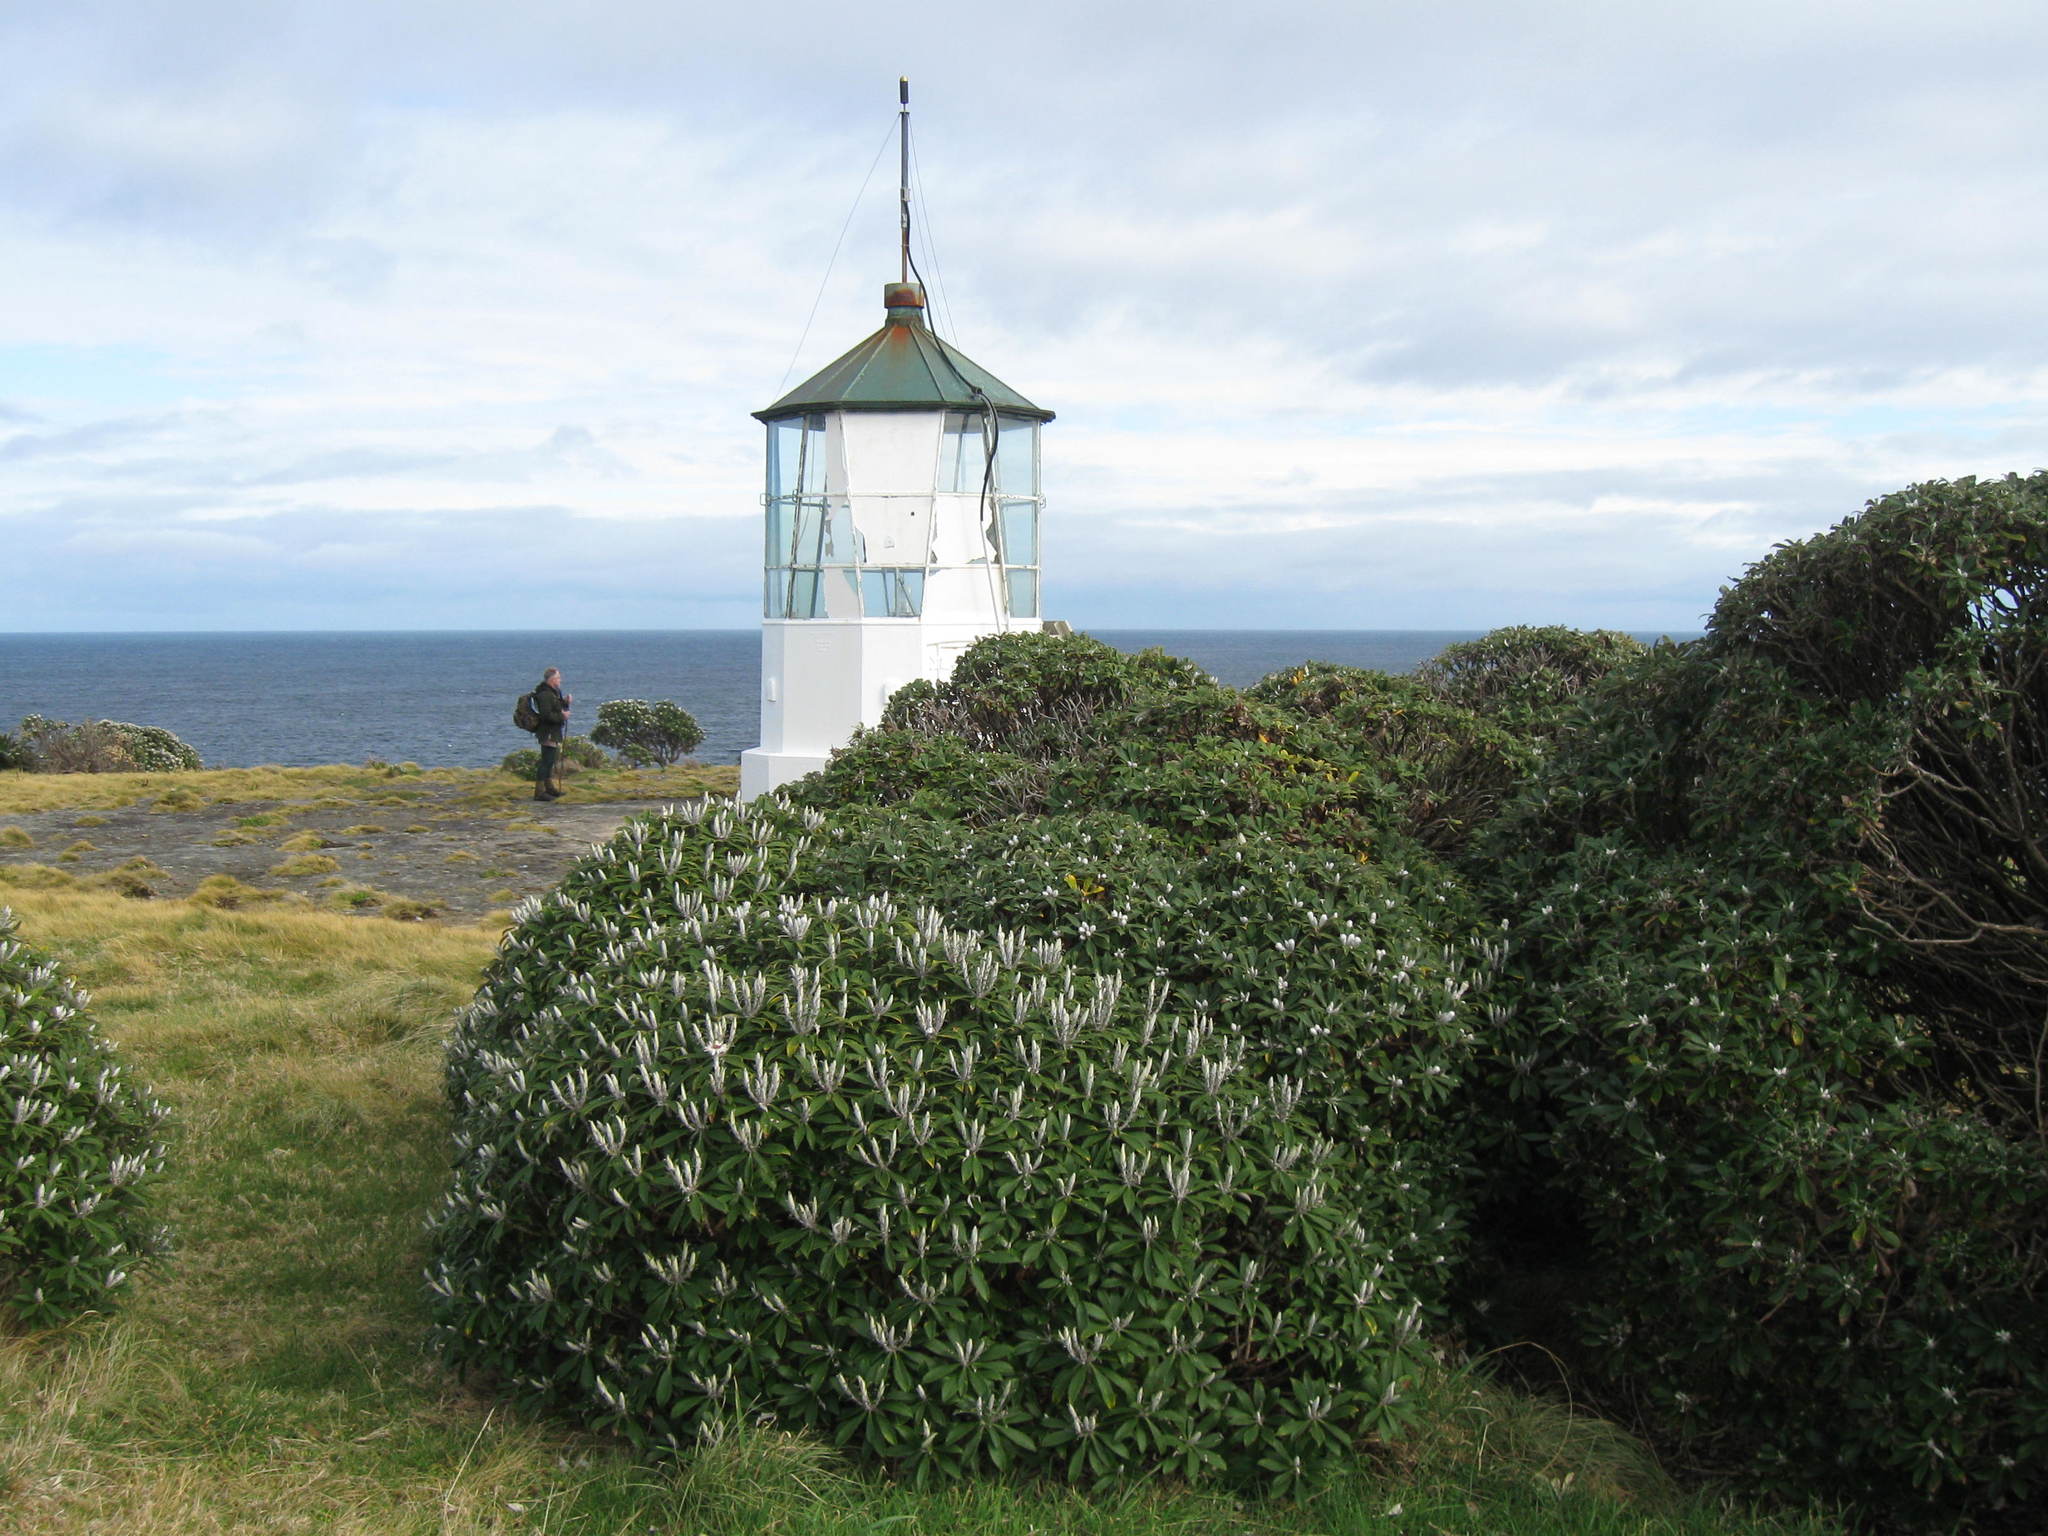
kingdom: Plantae
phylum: Tracheophyta
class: Magnoliopsida
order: Asterales
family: Asteraceae
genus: Macrolearia
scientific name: Macrolearia oporina
